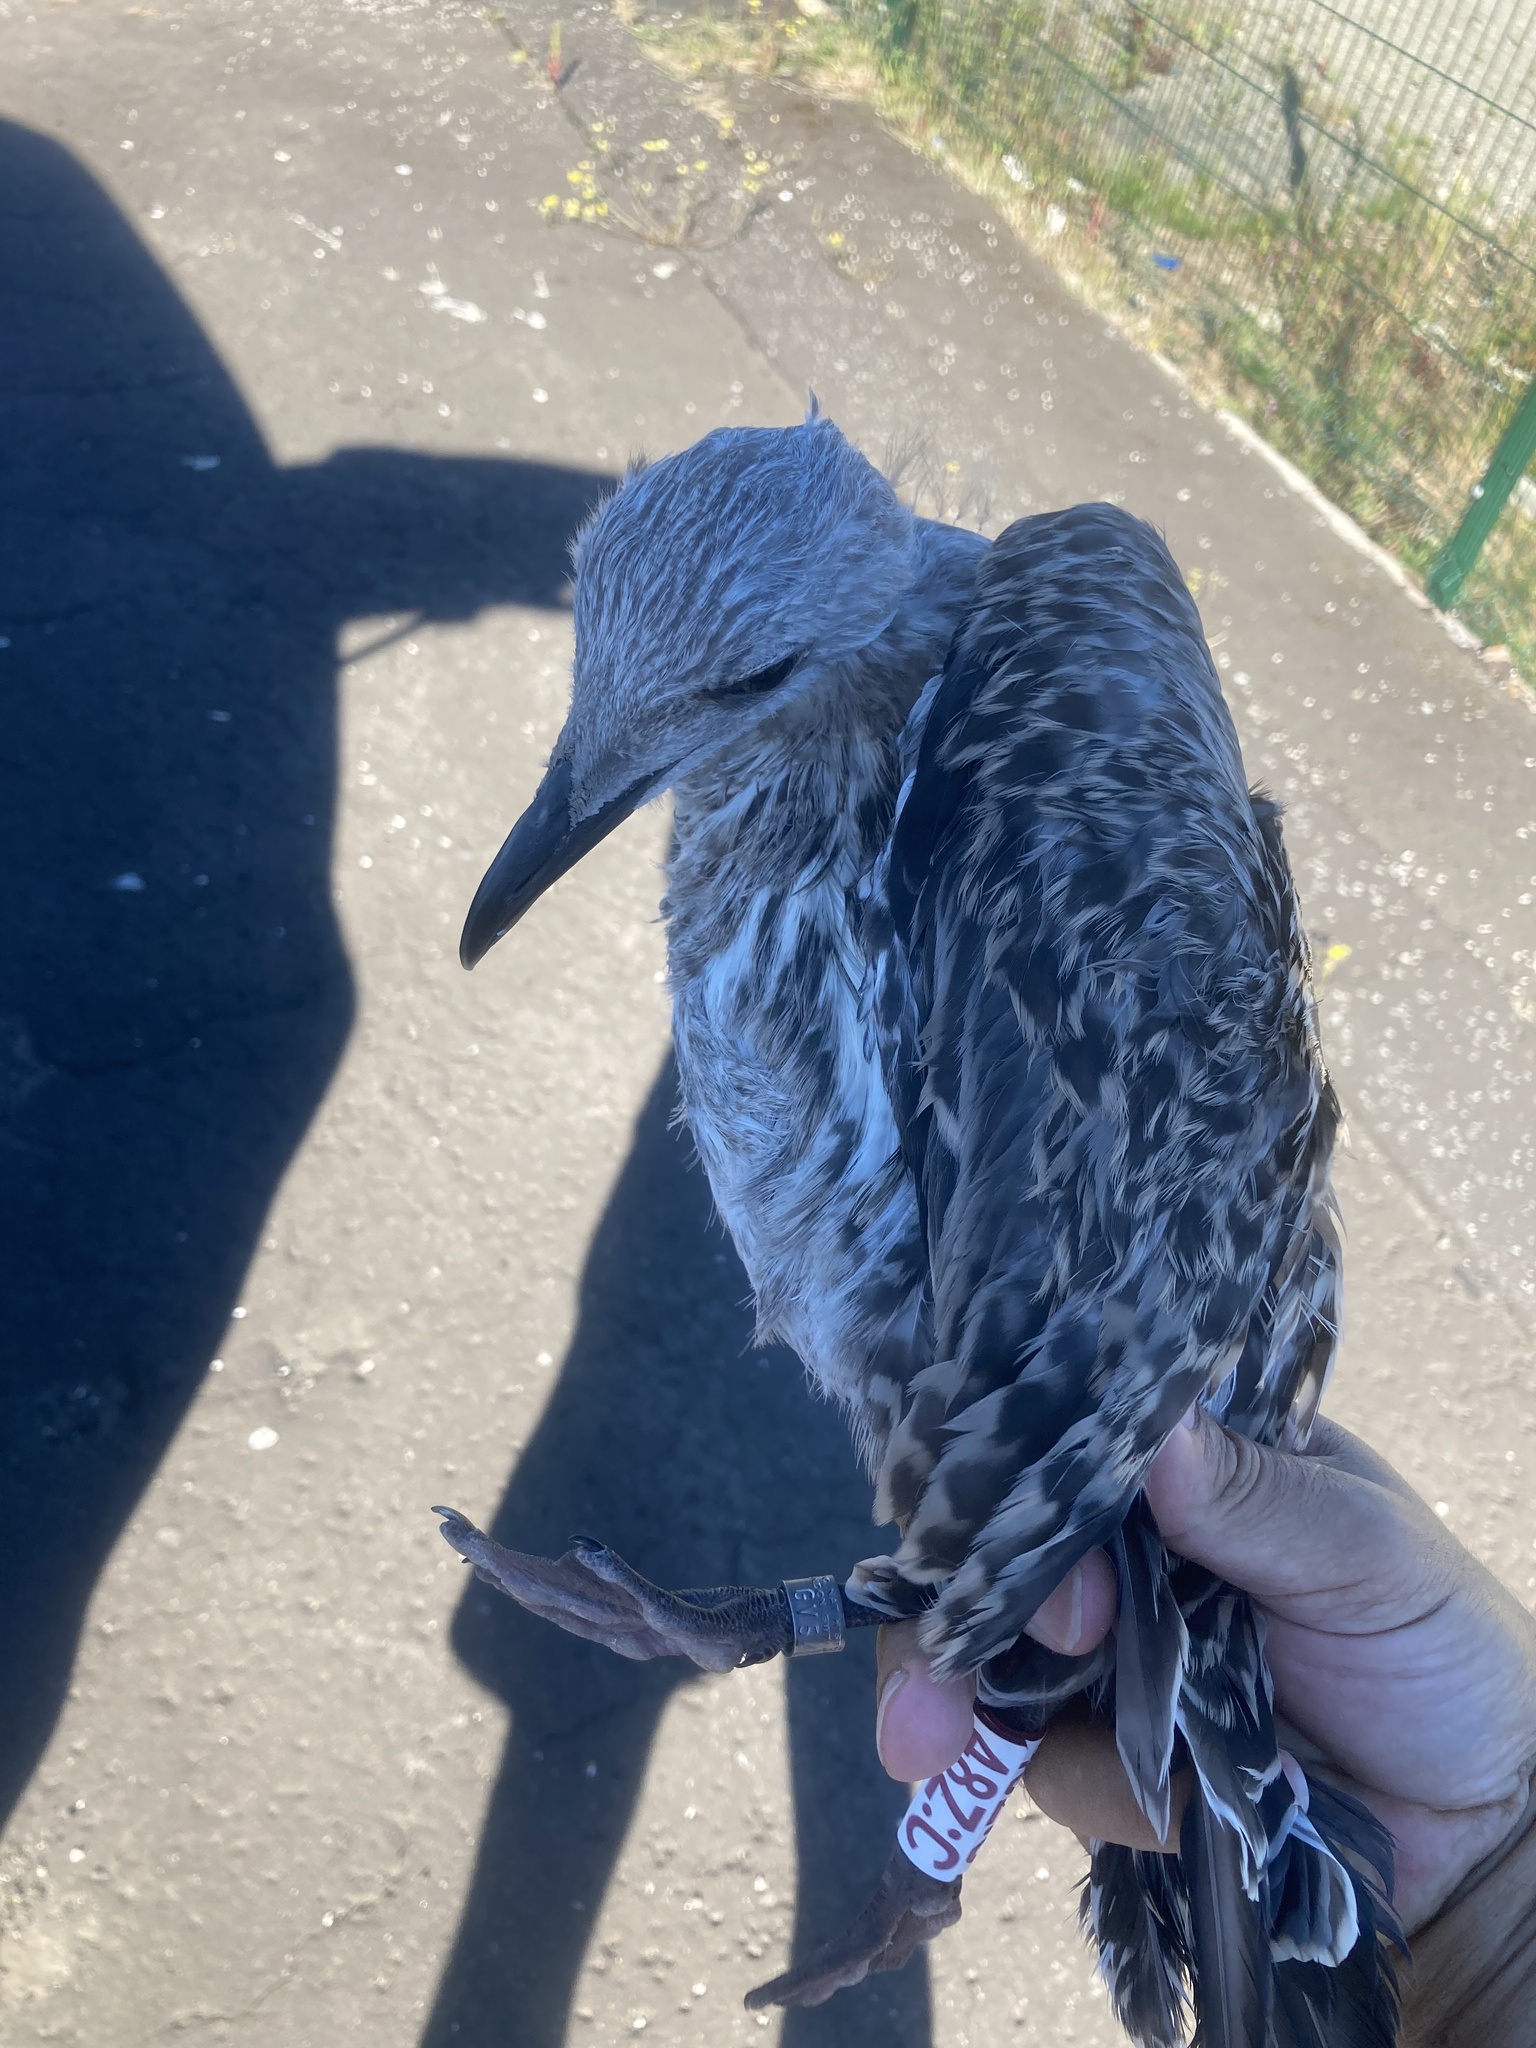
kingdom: Animalia
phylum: Chordata
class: Aves
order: Charadriiformes
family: Laridae
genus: Larus
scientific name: Larus fuscus
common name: Lesser black-backed gull
